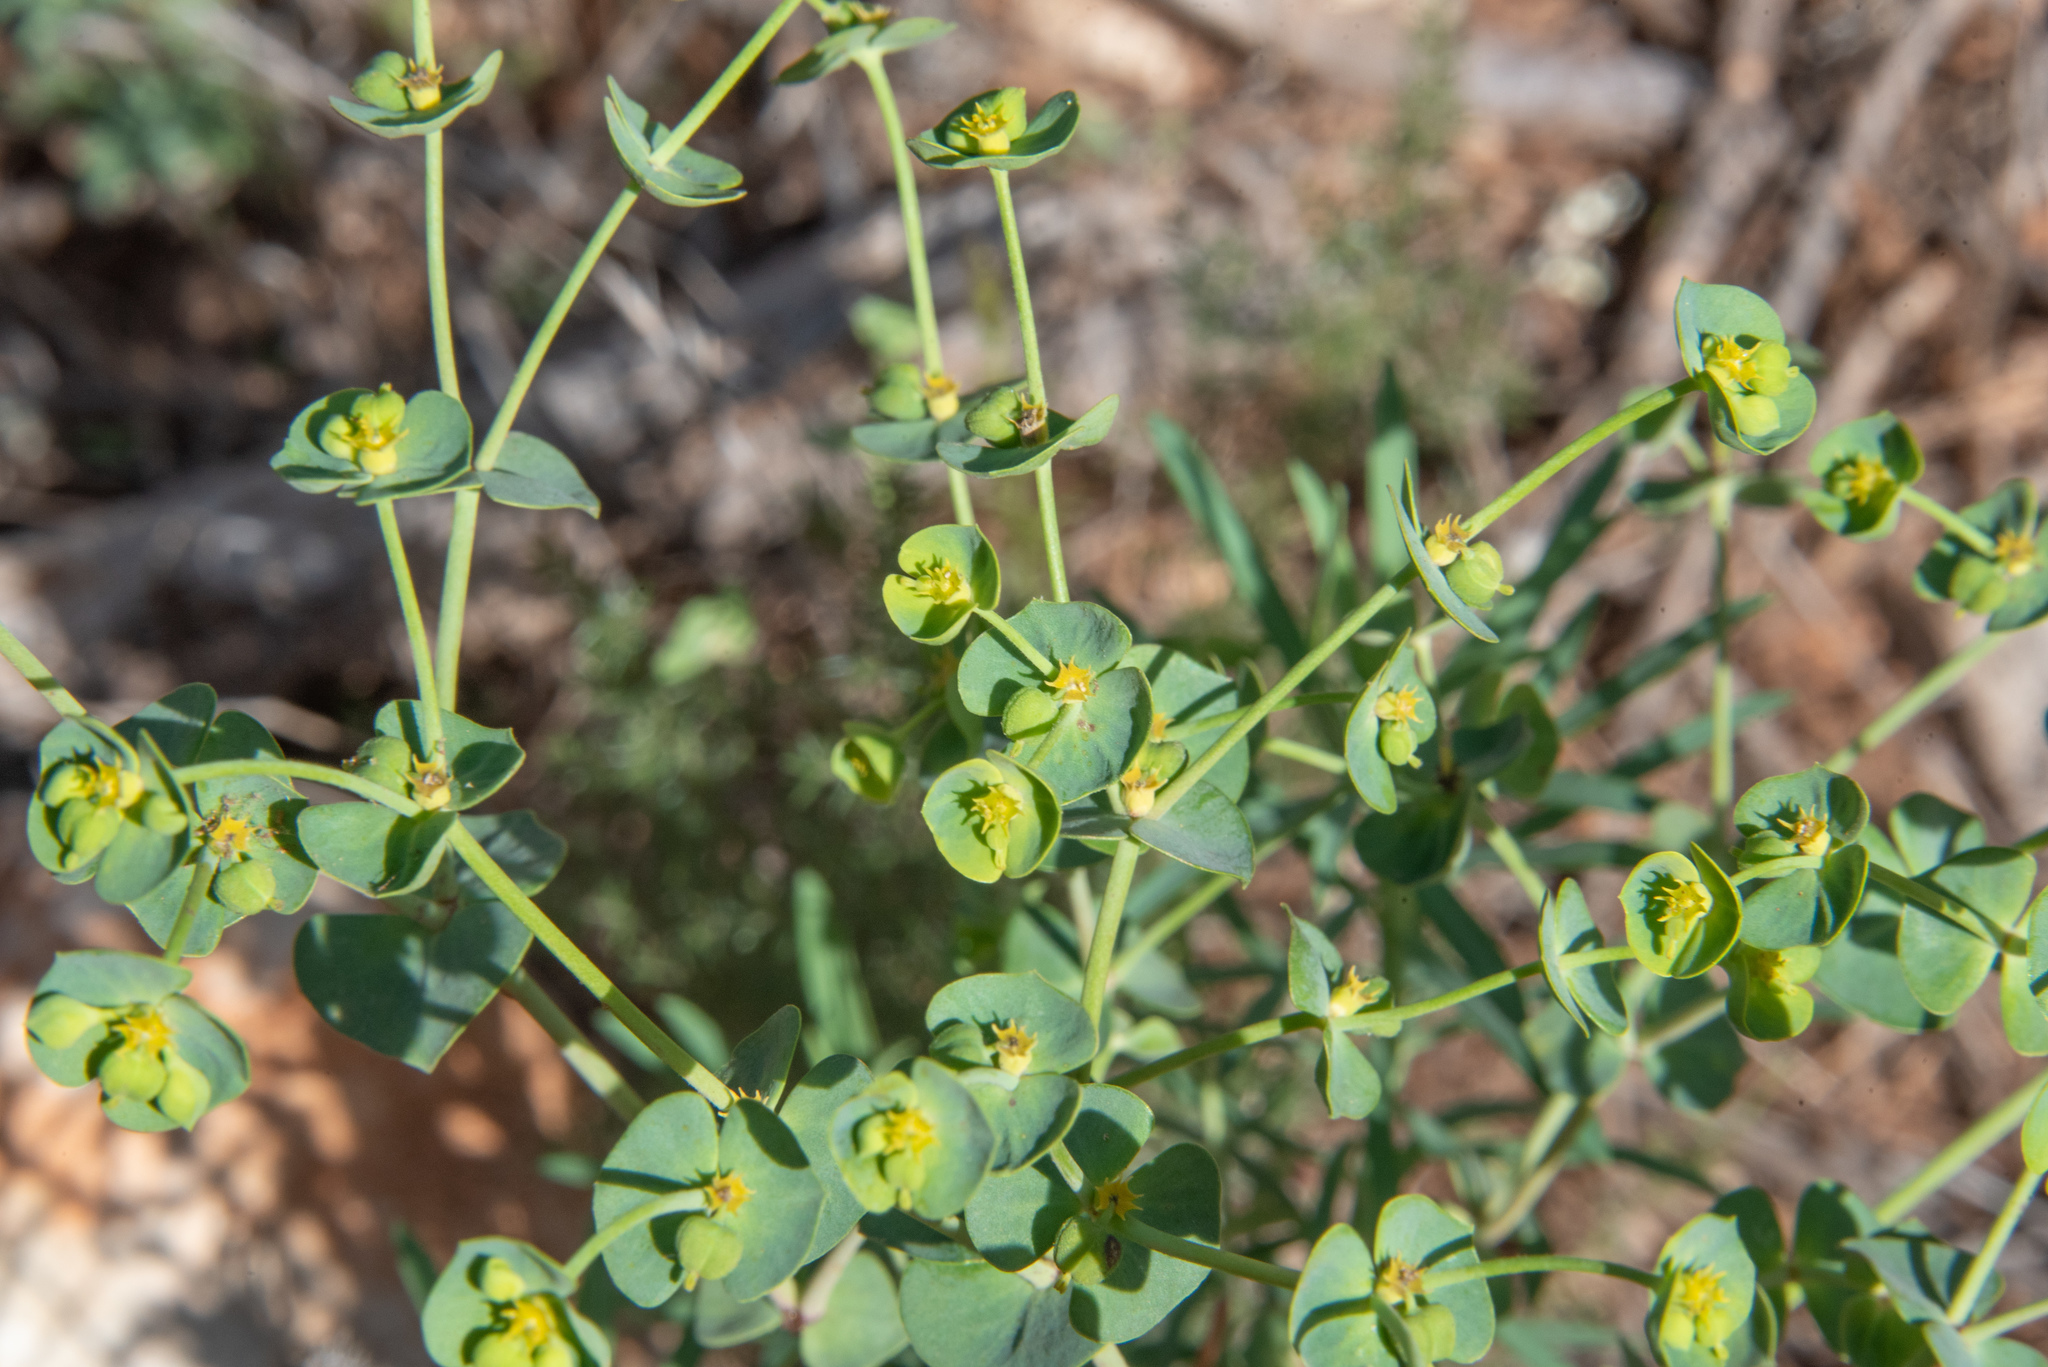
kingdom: Plantae
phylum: Tracheophyta
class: Magnoliopsida
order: Malpighiales
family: Euphorbiaceae
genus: Euphorbia
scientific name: Euphorbia segetalis
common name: Corn spurge
